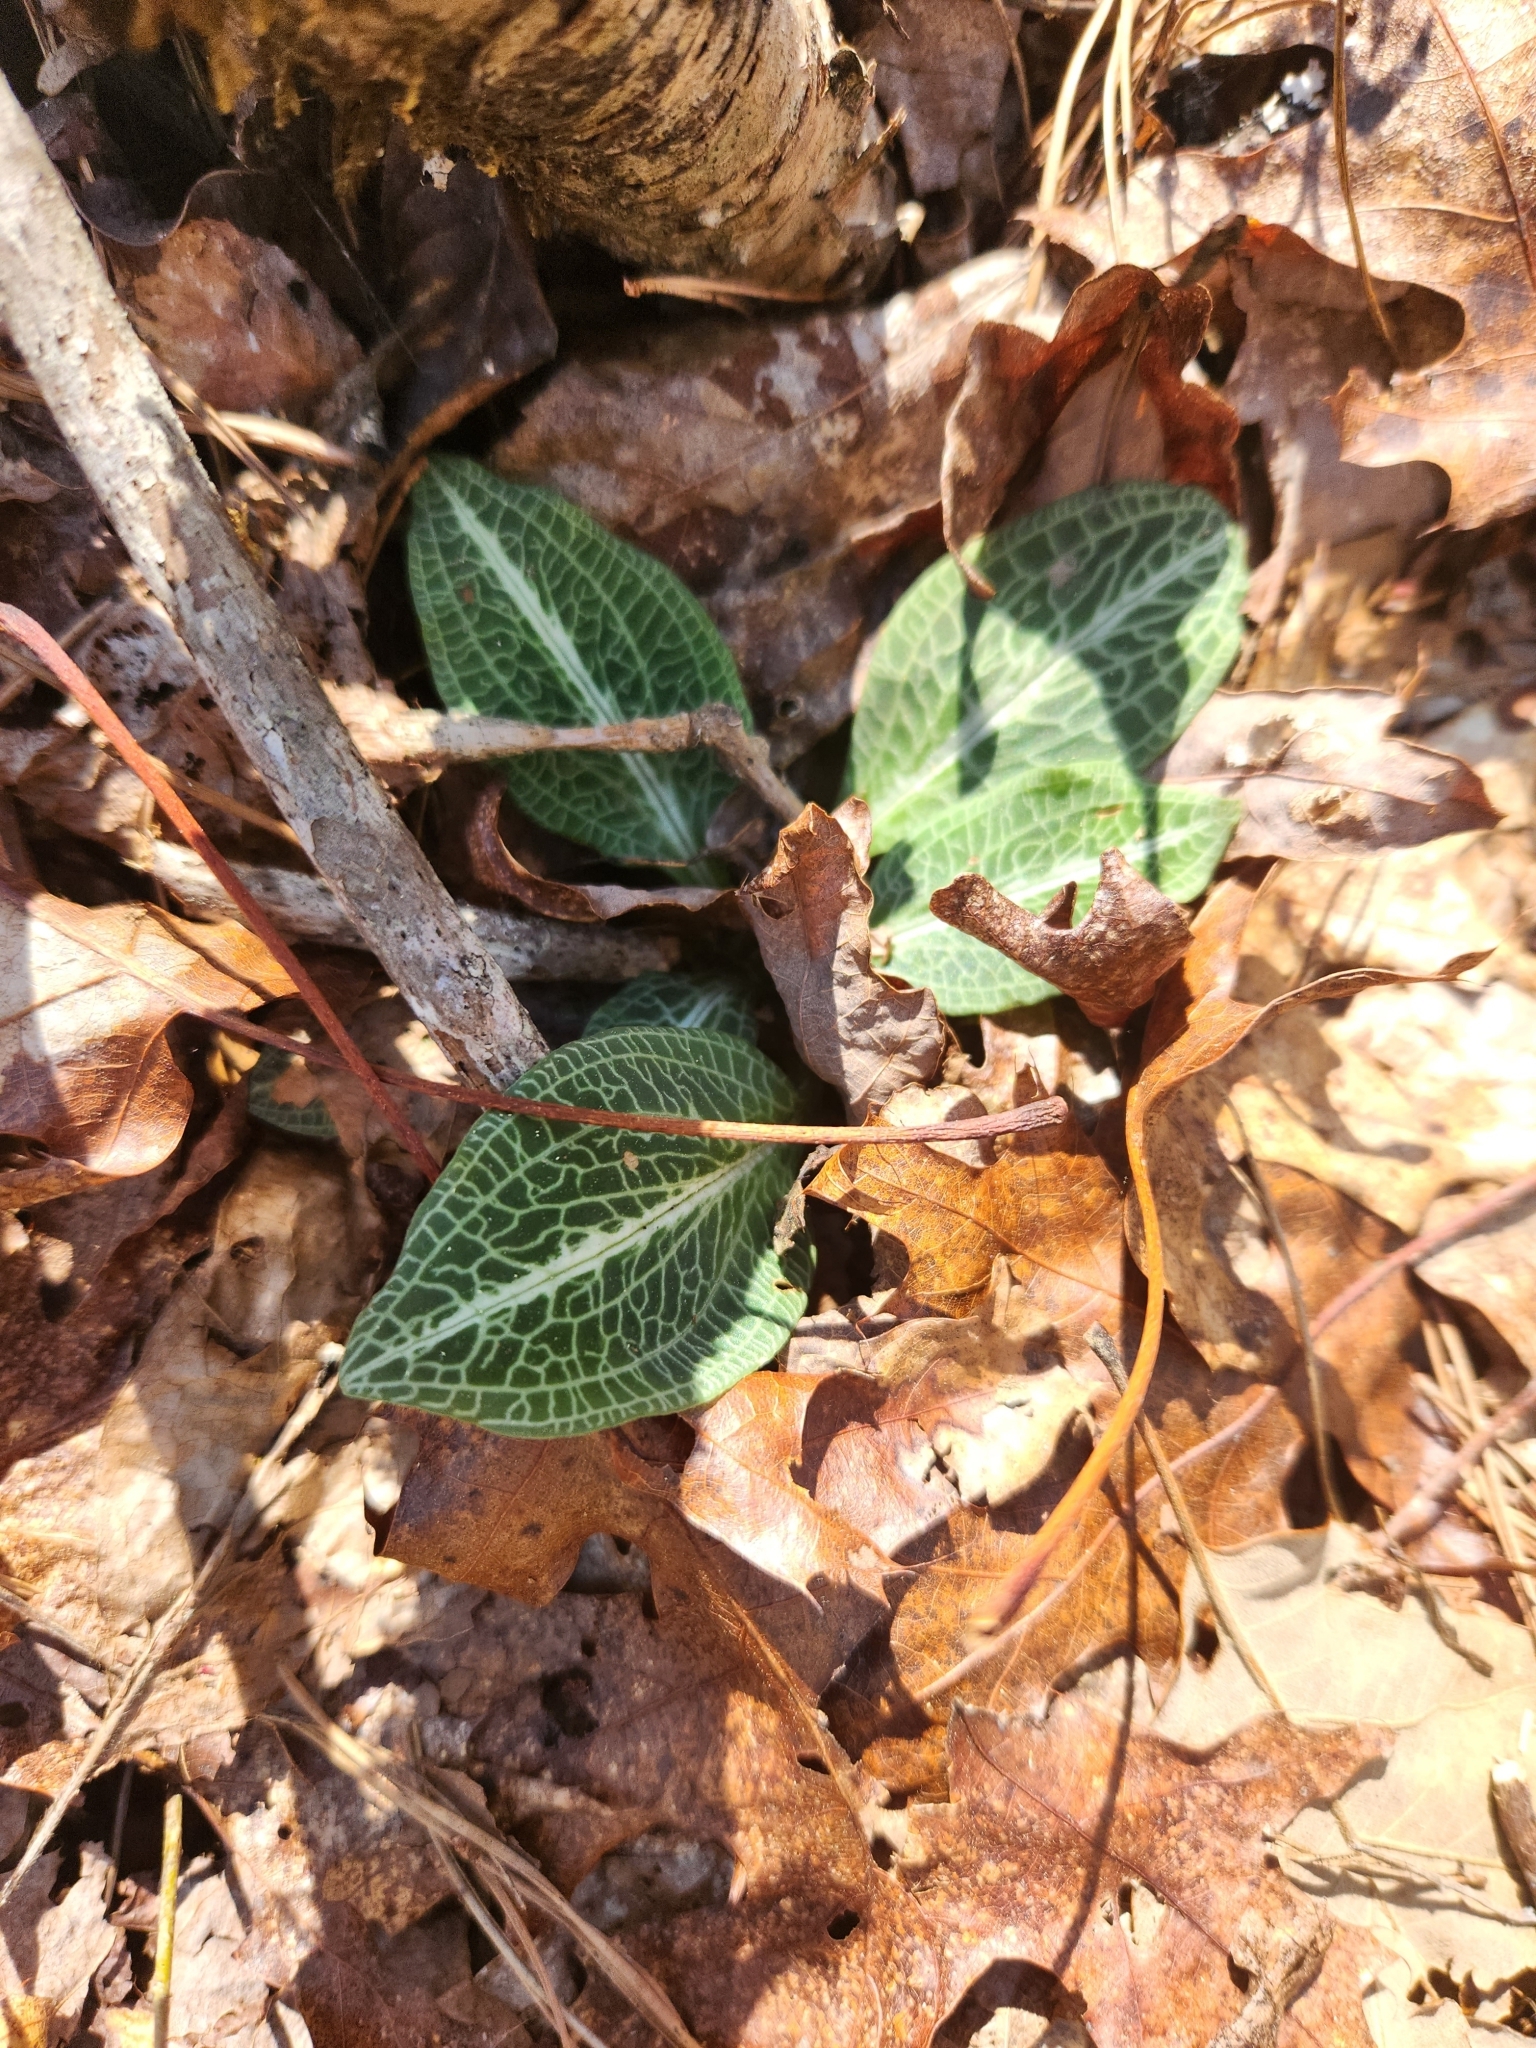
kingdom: Plantae
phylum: Tracheophyta
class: Liliopsida
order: Asparagales
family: Orchidaceae
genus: Goodyera
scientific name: Goodyera pubescens
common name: Downy rattlesnake-plantain
